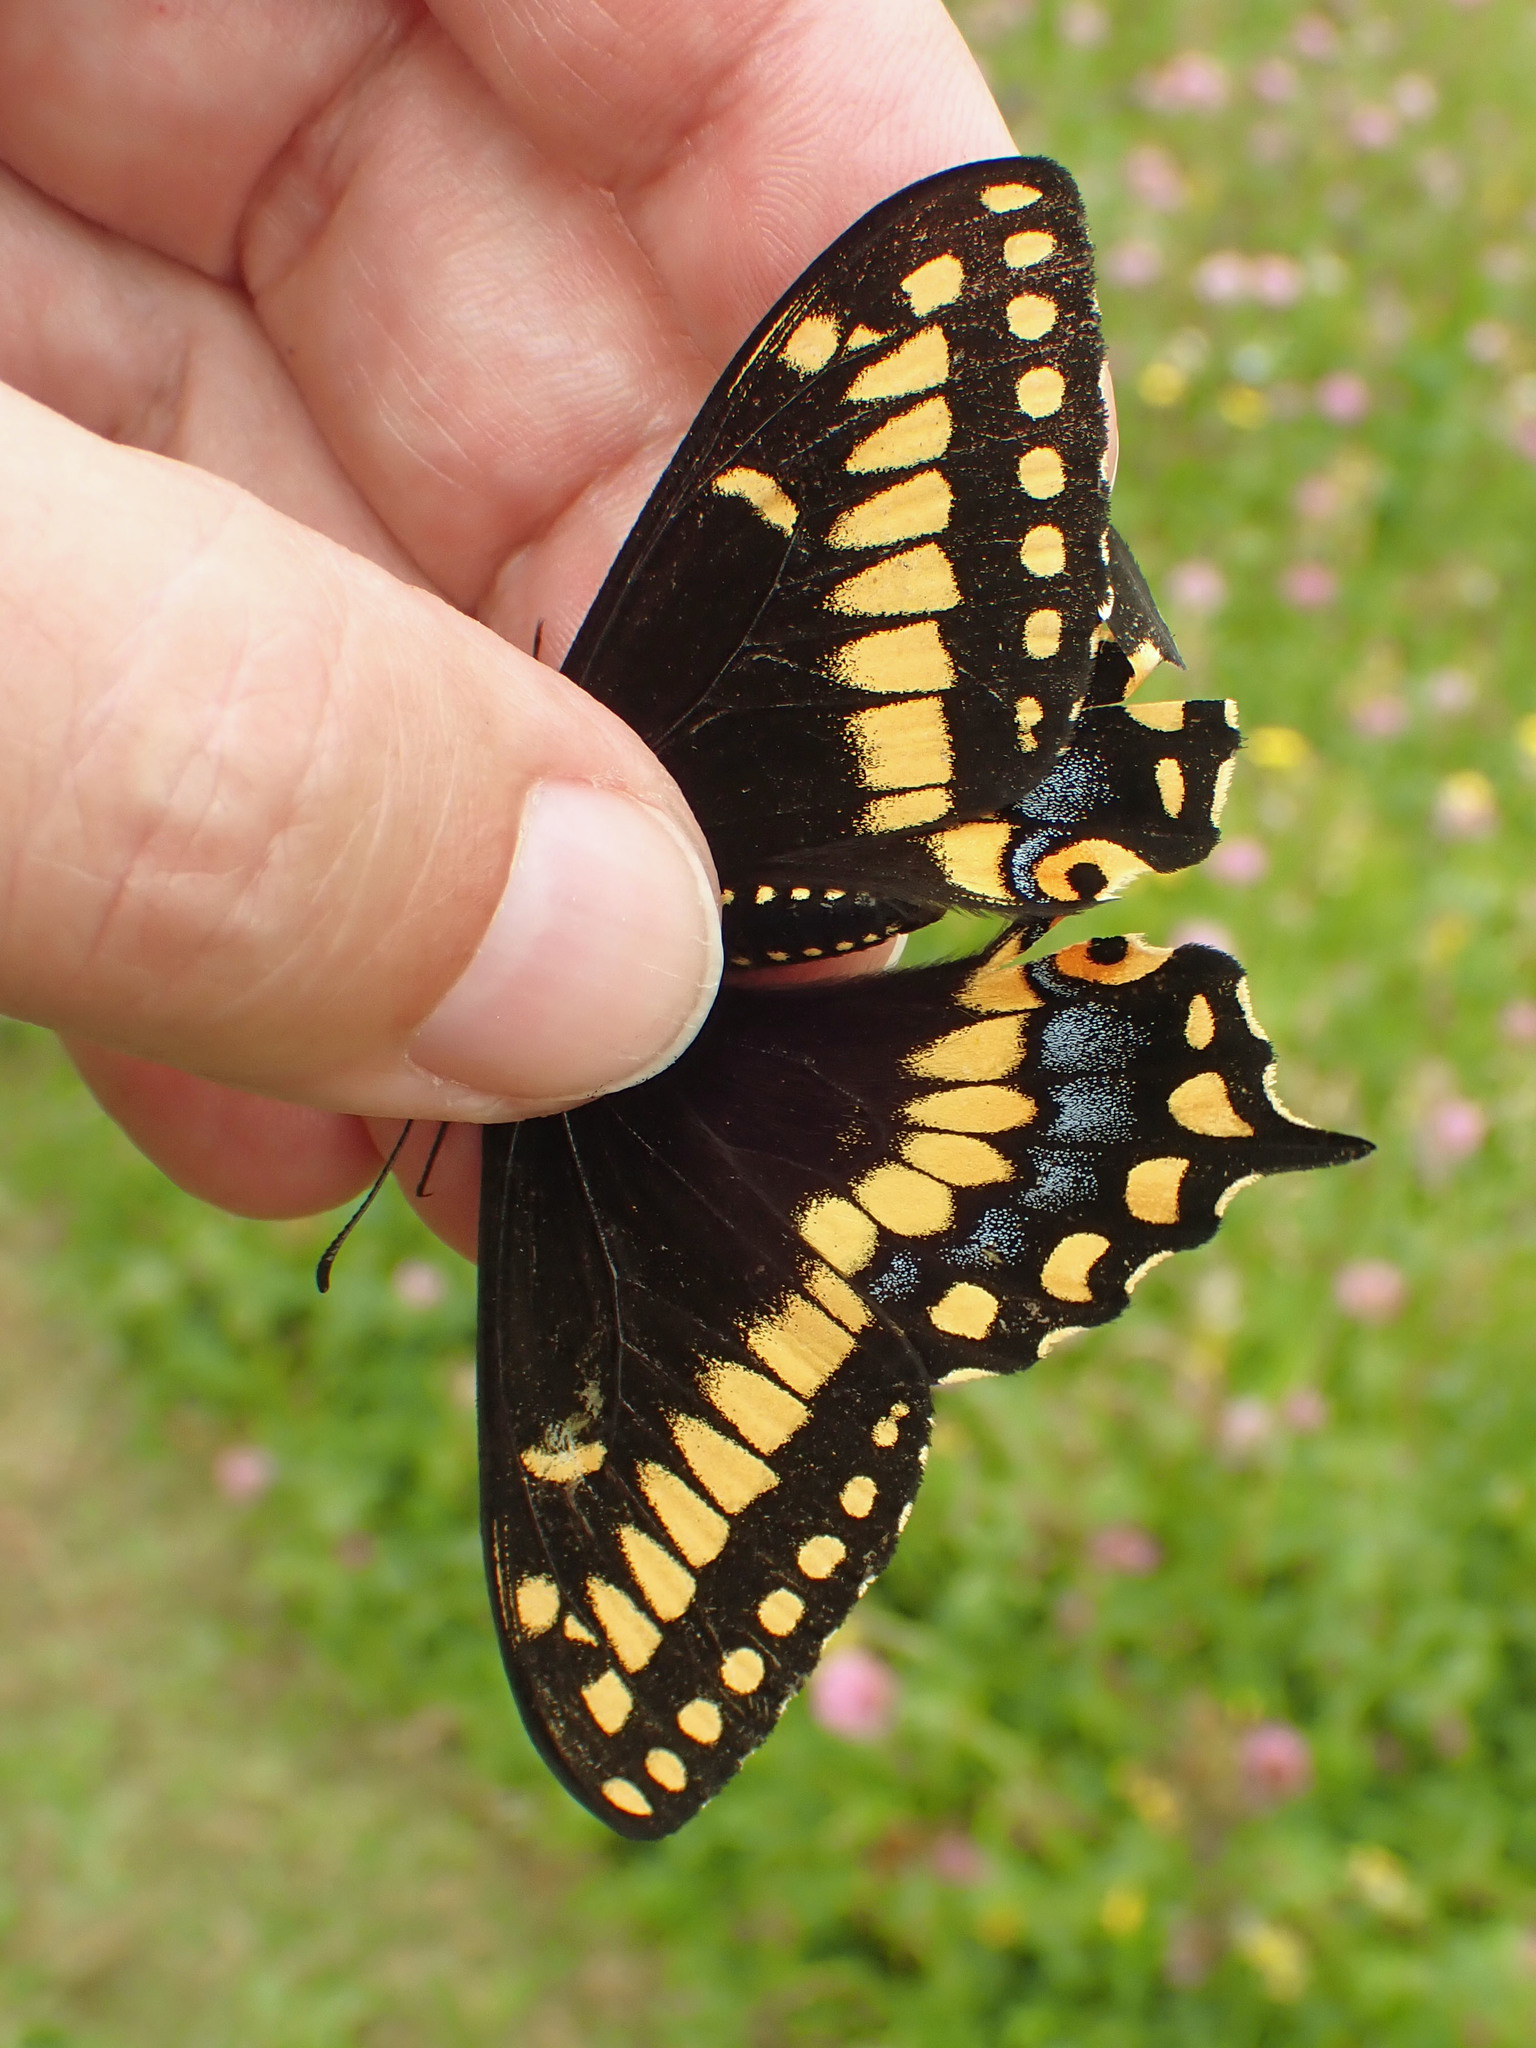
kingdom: Animalia
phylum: Arthropoda
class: Insecta
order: Lepidoptera
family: Papilionidae
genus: Papilio
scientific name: Papilio brevicauda
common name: Short tailed swallowtail
